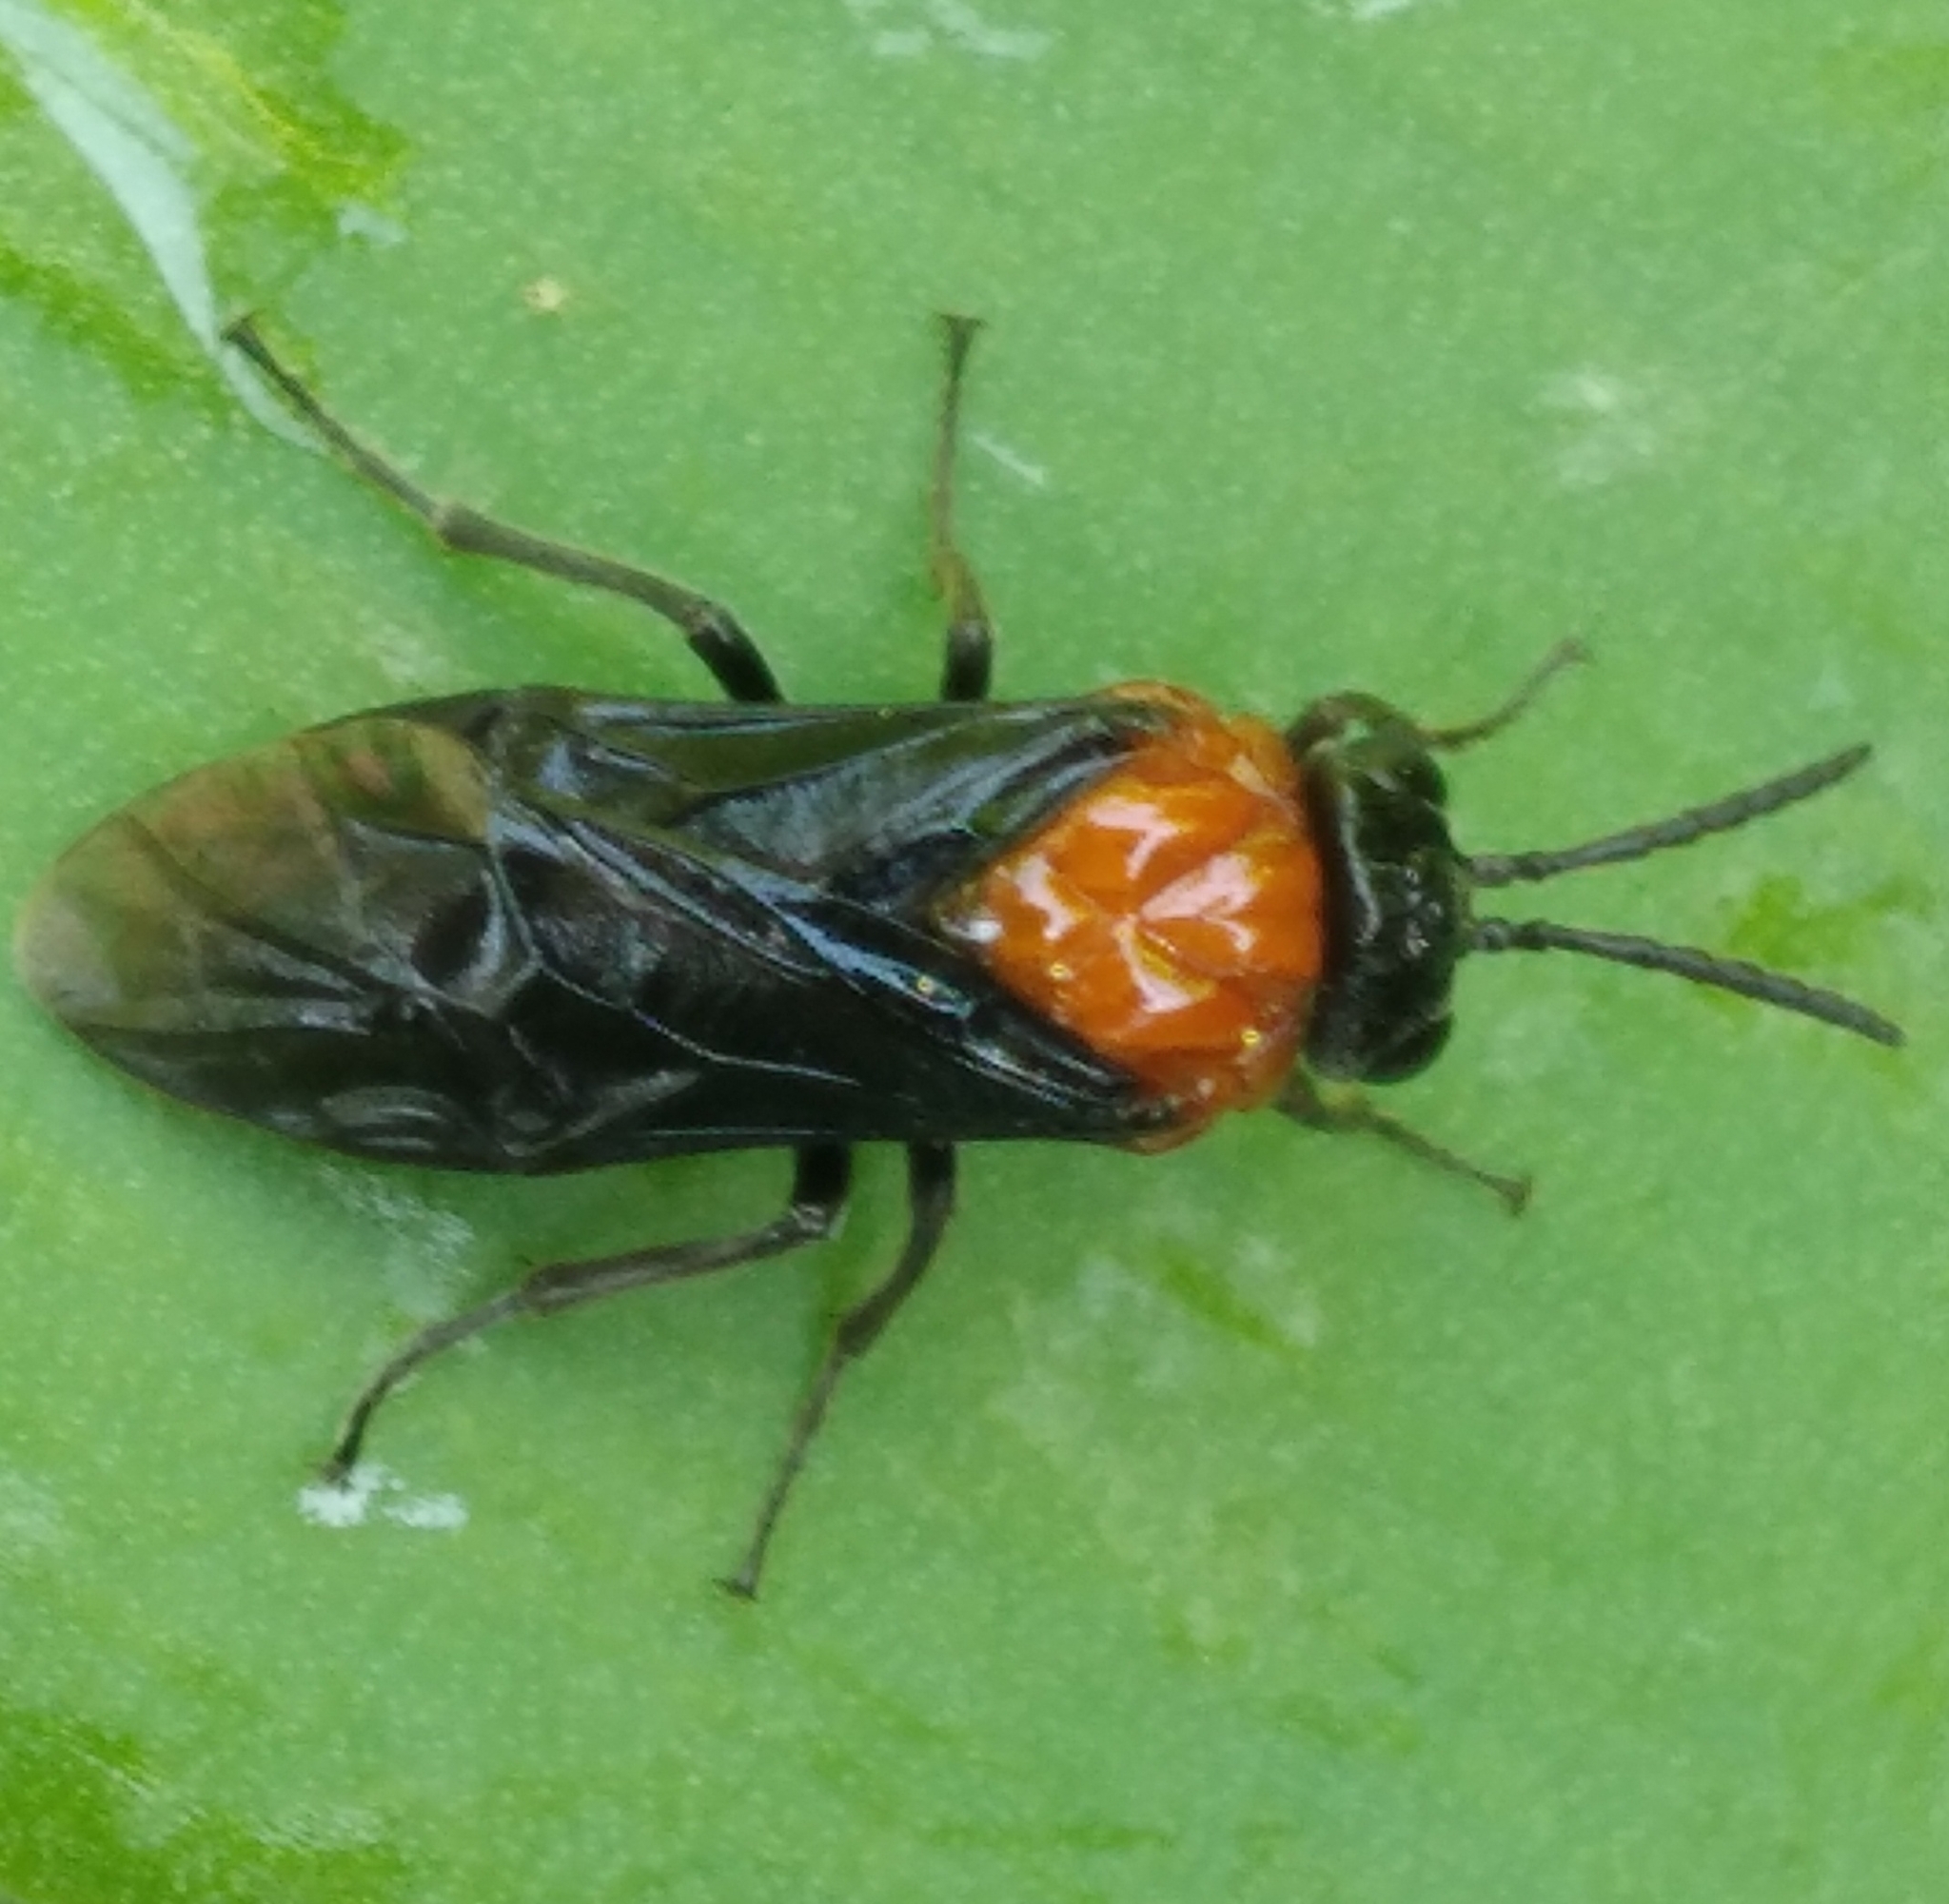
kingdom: Animalia
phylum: Arthropoda
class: Insecta
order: Hymenoptera
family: Tenthredinidae
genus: Tethida
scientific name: Tethida barda
